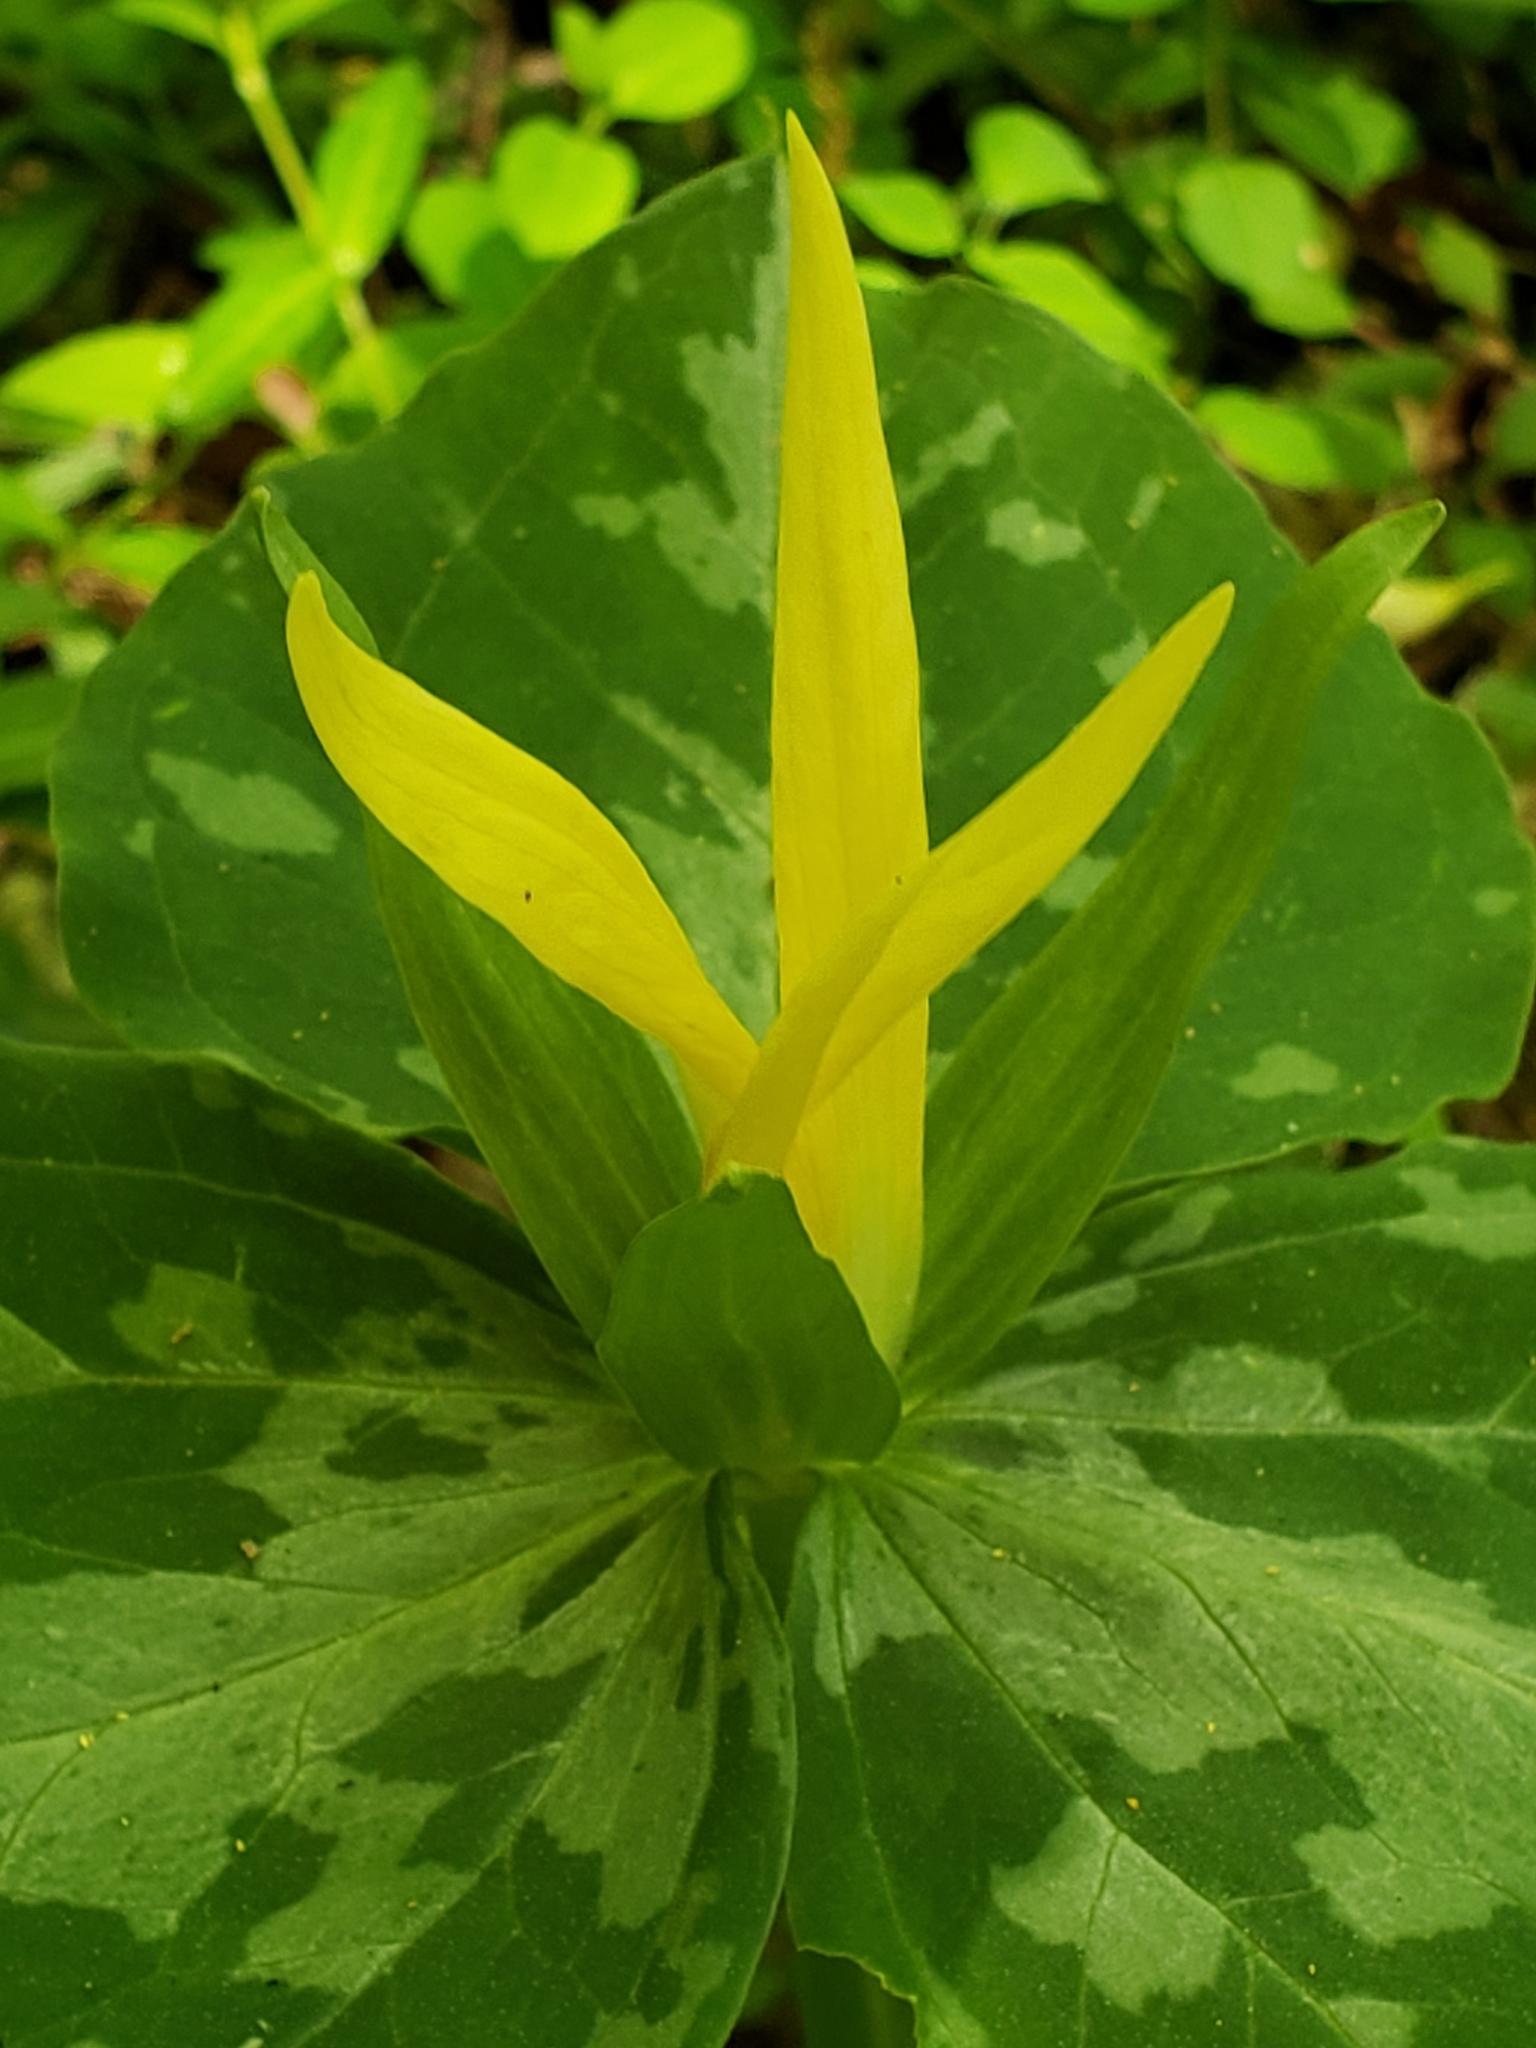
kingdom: Plantae
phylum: Tracheophyta
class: Liliopsida
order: Liliales
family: Melanthiaceae
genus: Trillium
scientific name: Trillium luteum
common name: Wax trillium
